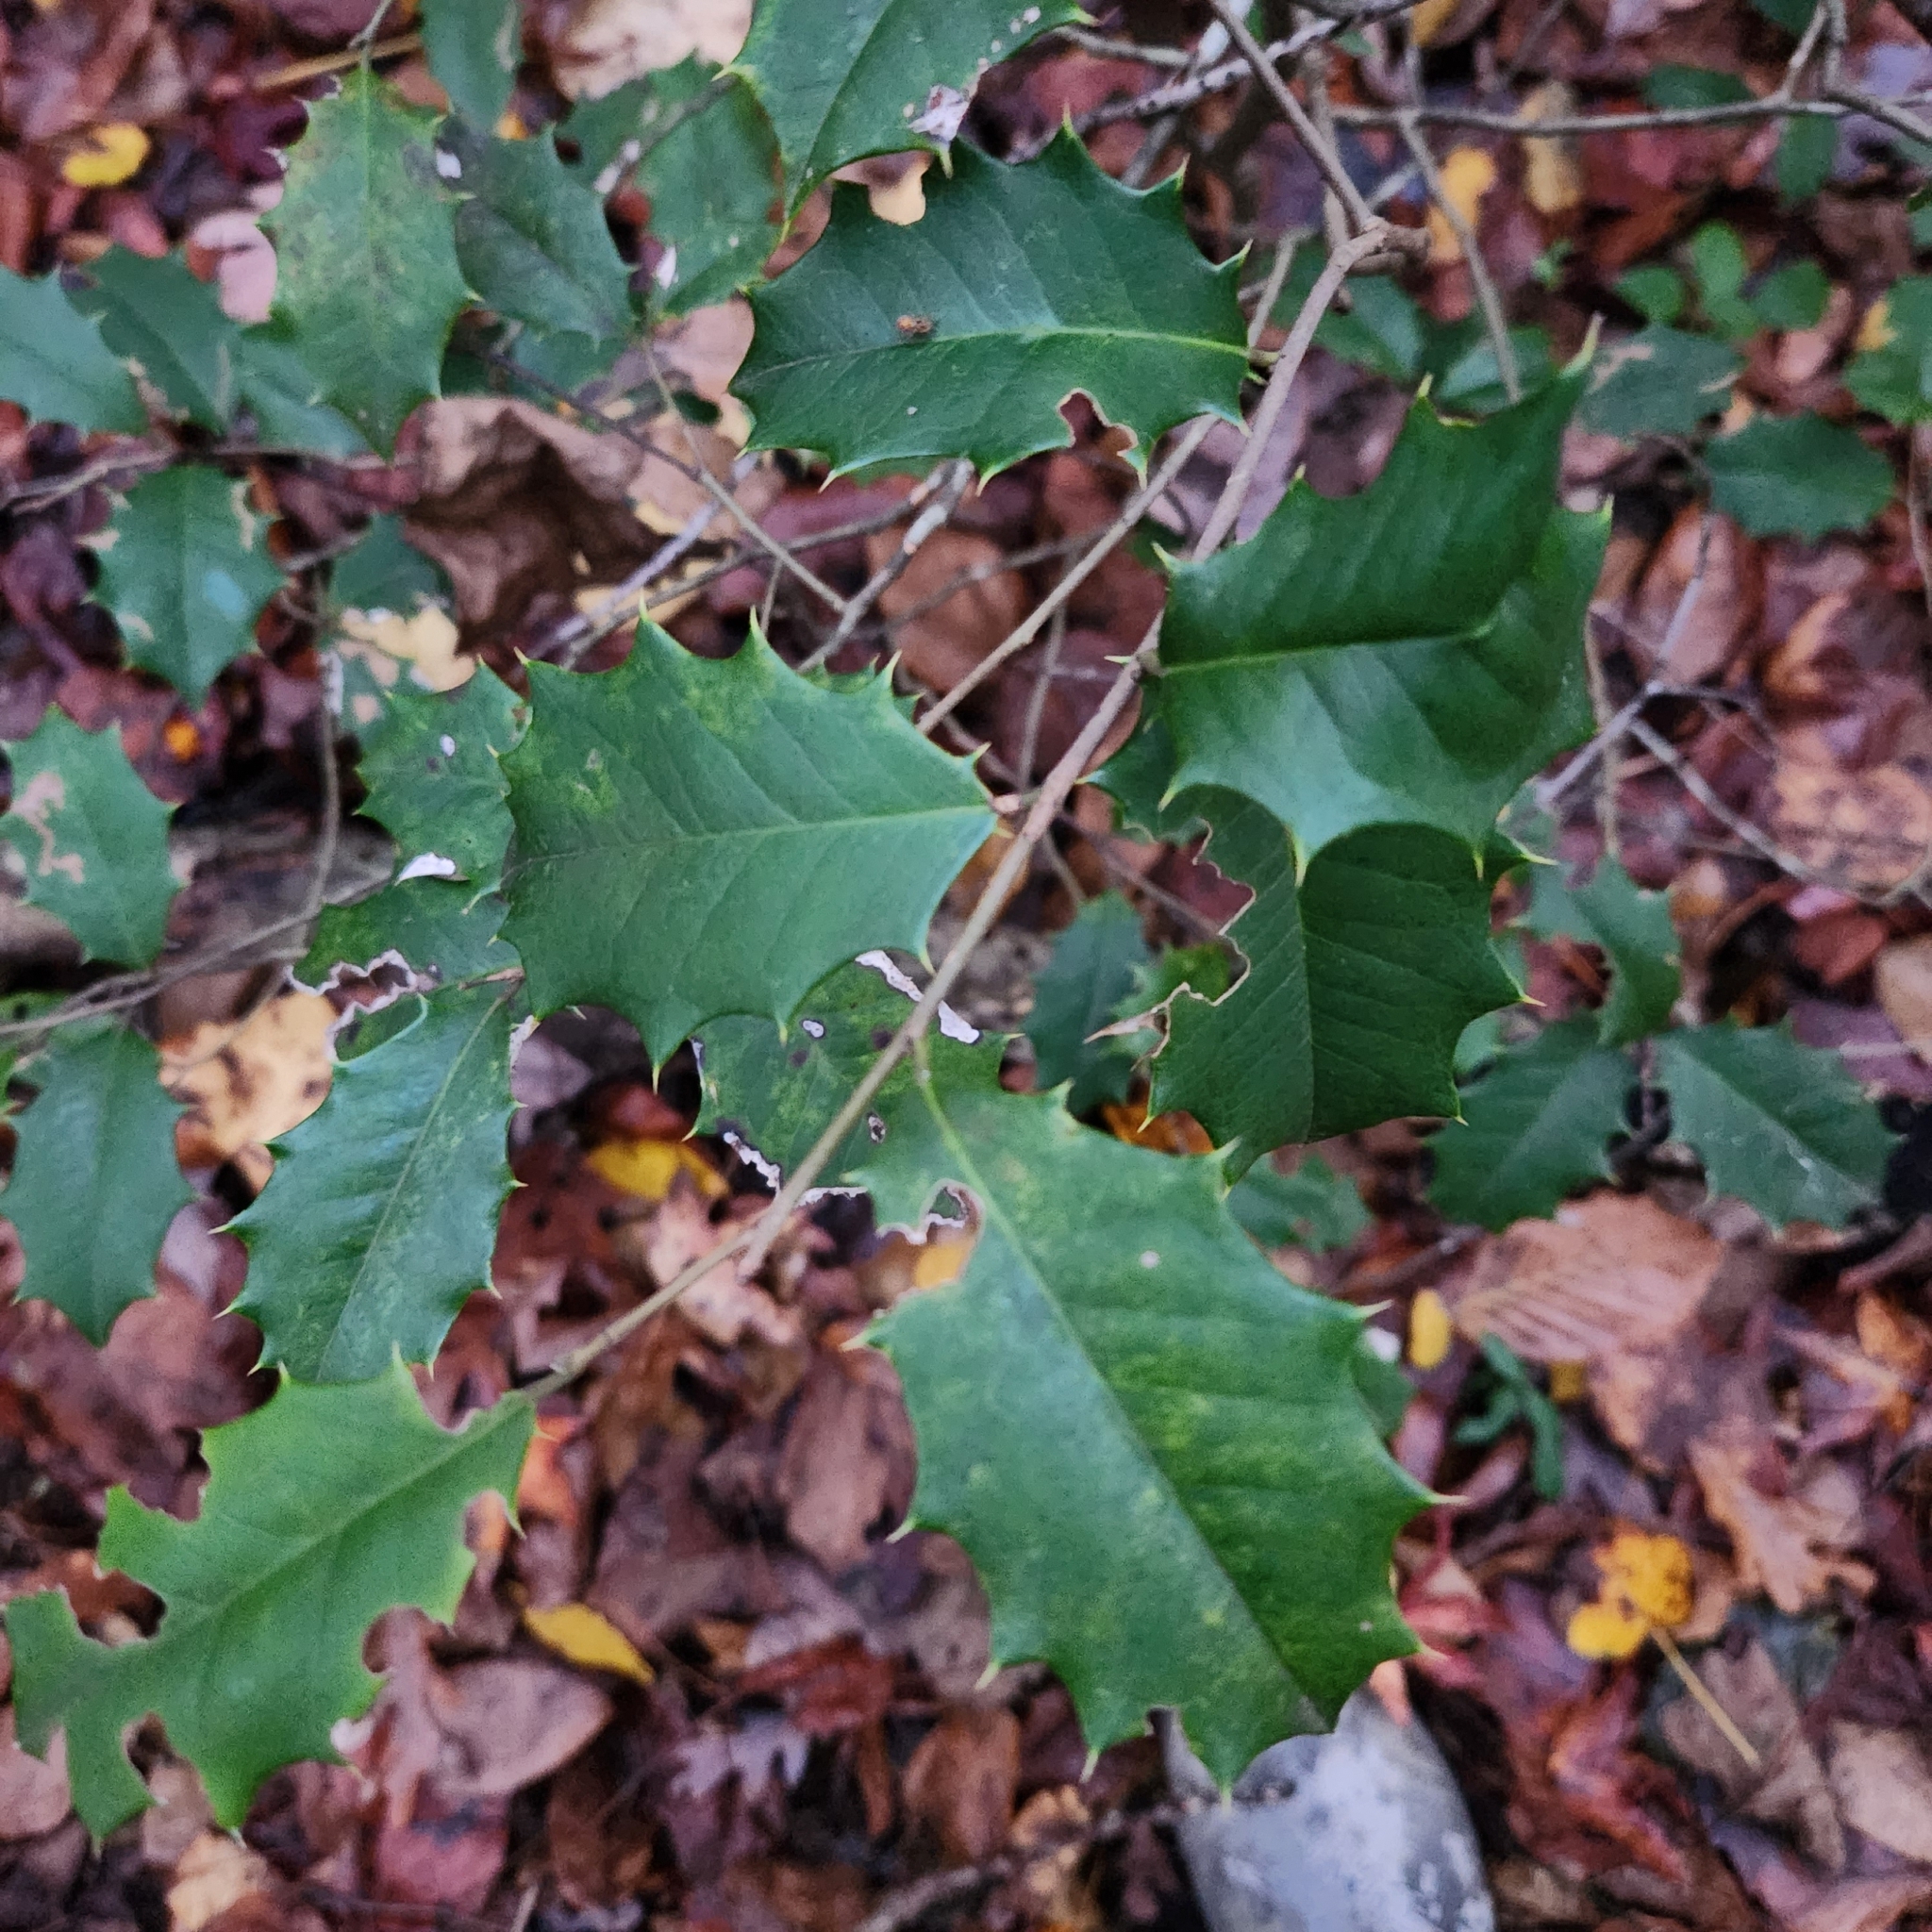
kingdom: Plantae
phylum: Tracheophyta
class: Magnoliopsida
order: Aquifoliales
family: Aquifoliaceae
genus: Ilex
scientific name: Ilex opaca
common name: American holly
